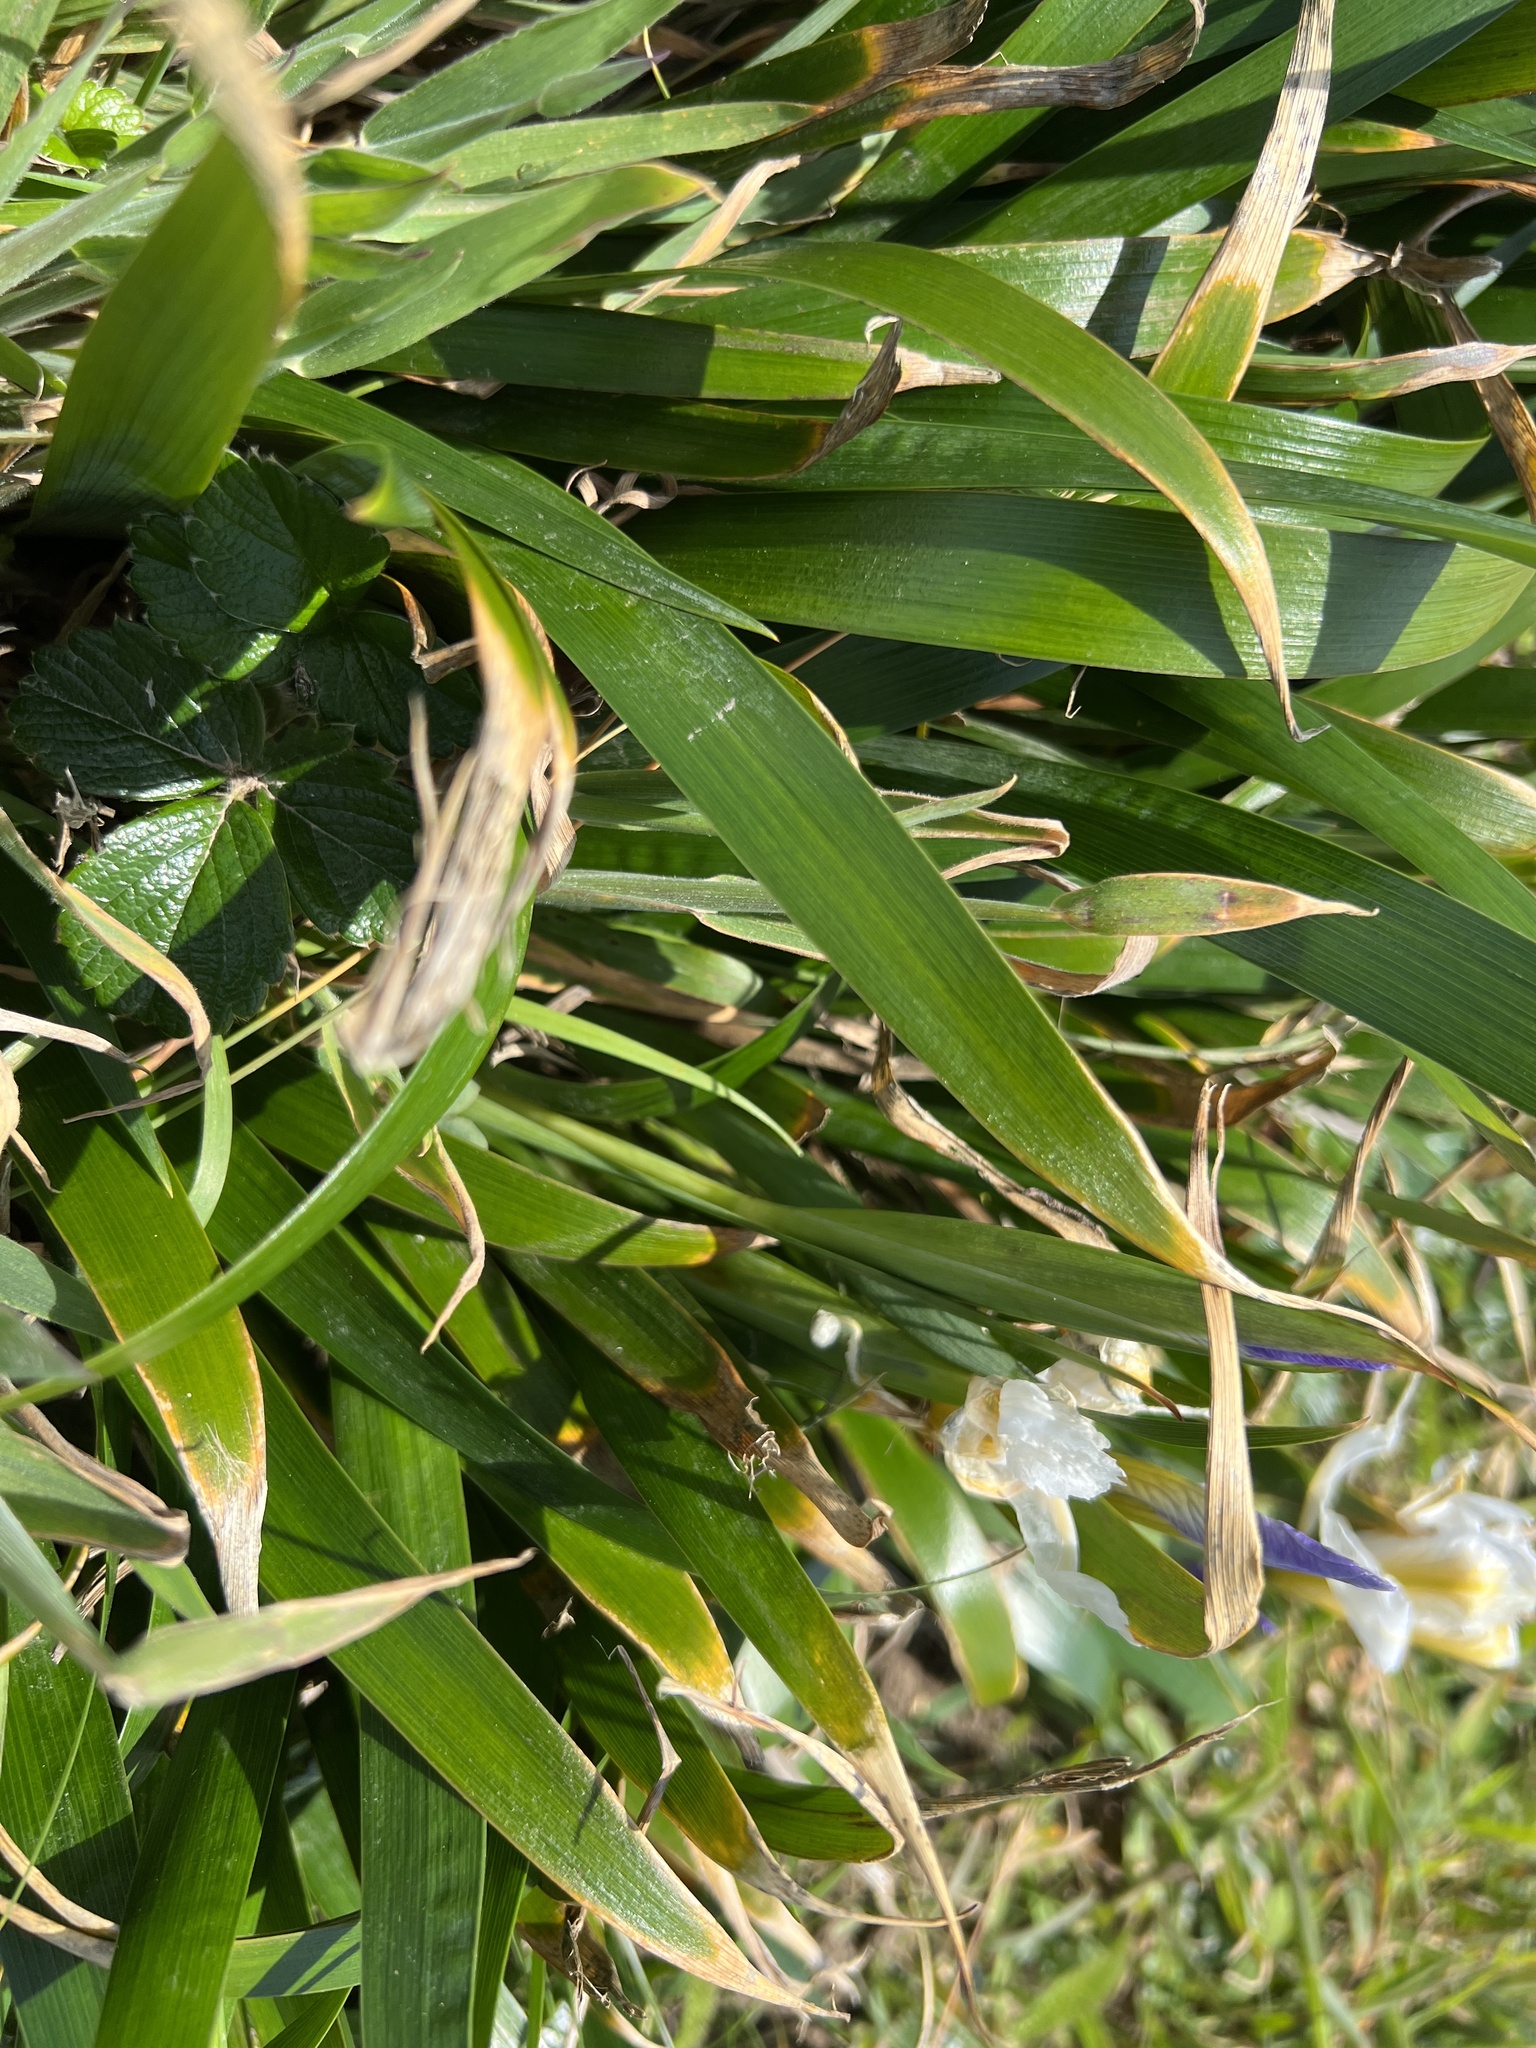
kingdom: Plantae
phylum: Tracheophyta
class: Liliopsida
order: Asparagales
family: Iridaceae
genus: Iris
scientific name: Iris douglasiana
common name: Marin iris
